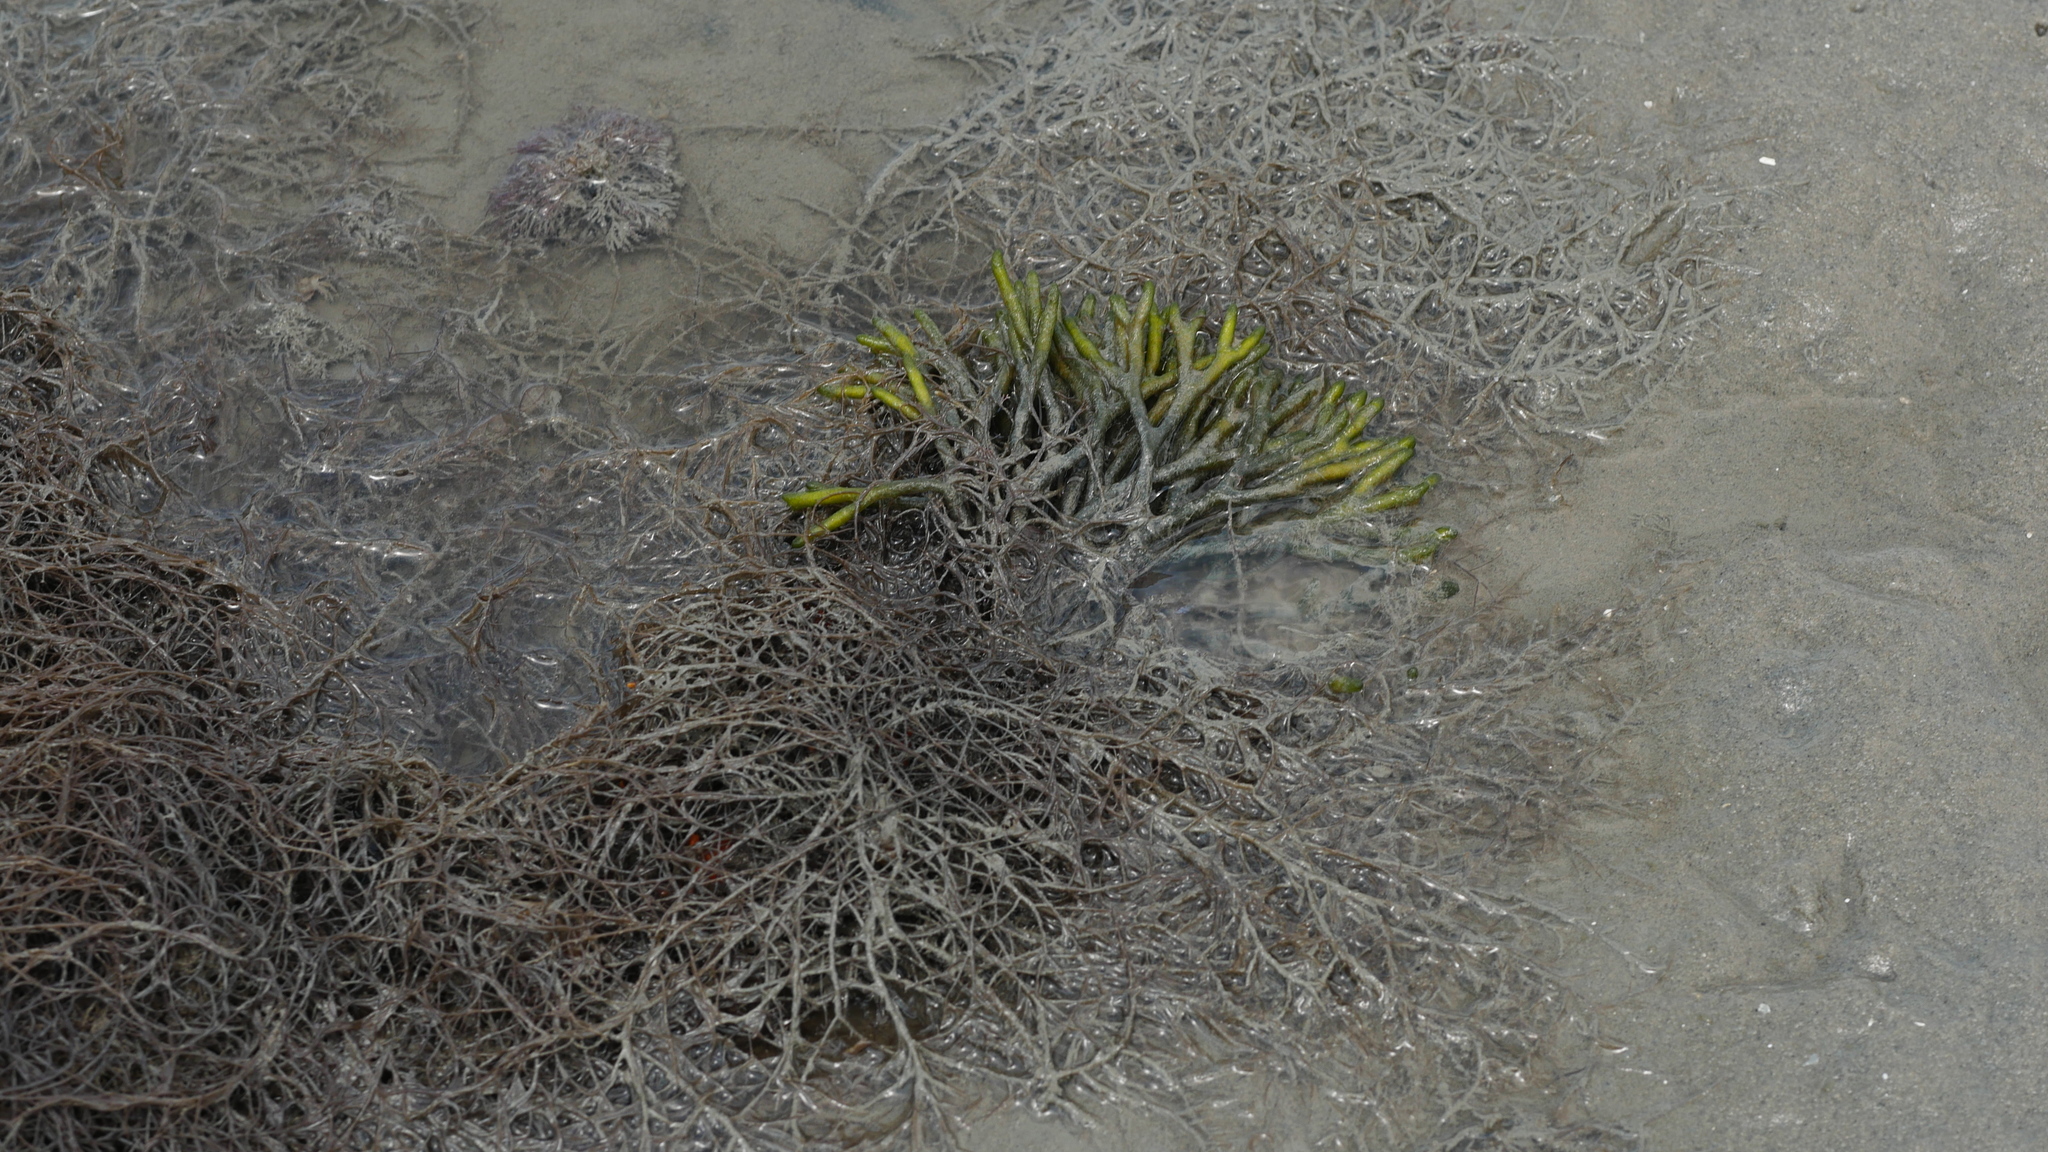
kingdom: Plantae
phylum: Chlorophyta
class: Ulvophyceae
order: Bryopsidales
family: Codiaceae
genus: Codium
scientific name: Codium fragile
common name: Dead man's fingers
